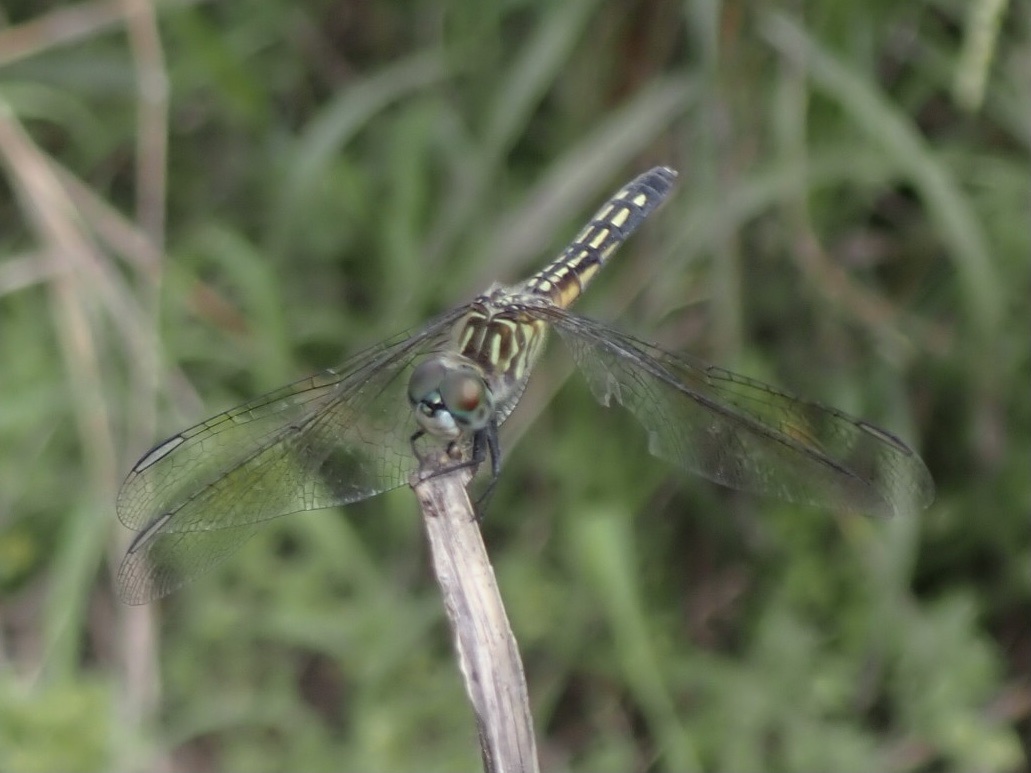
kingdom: Animalia
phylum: Arthropoda
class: Insecta
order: Odonata
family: Libellulidae
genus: Pachydiplax
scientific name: Pachydiplax longipennis
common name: Blue dasher
